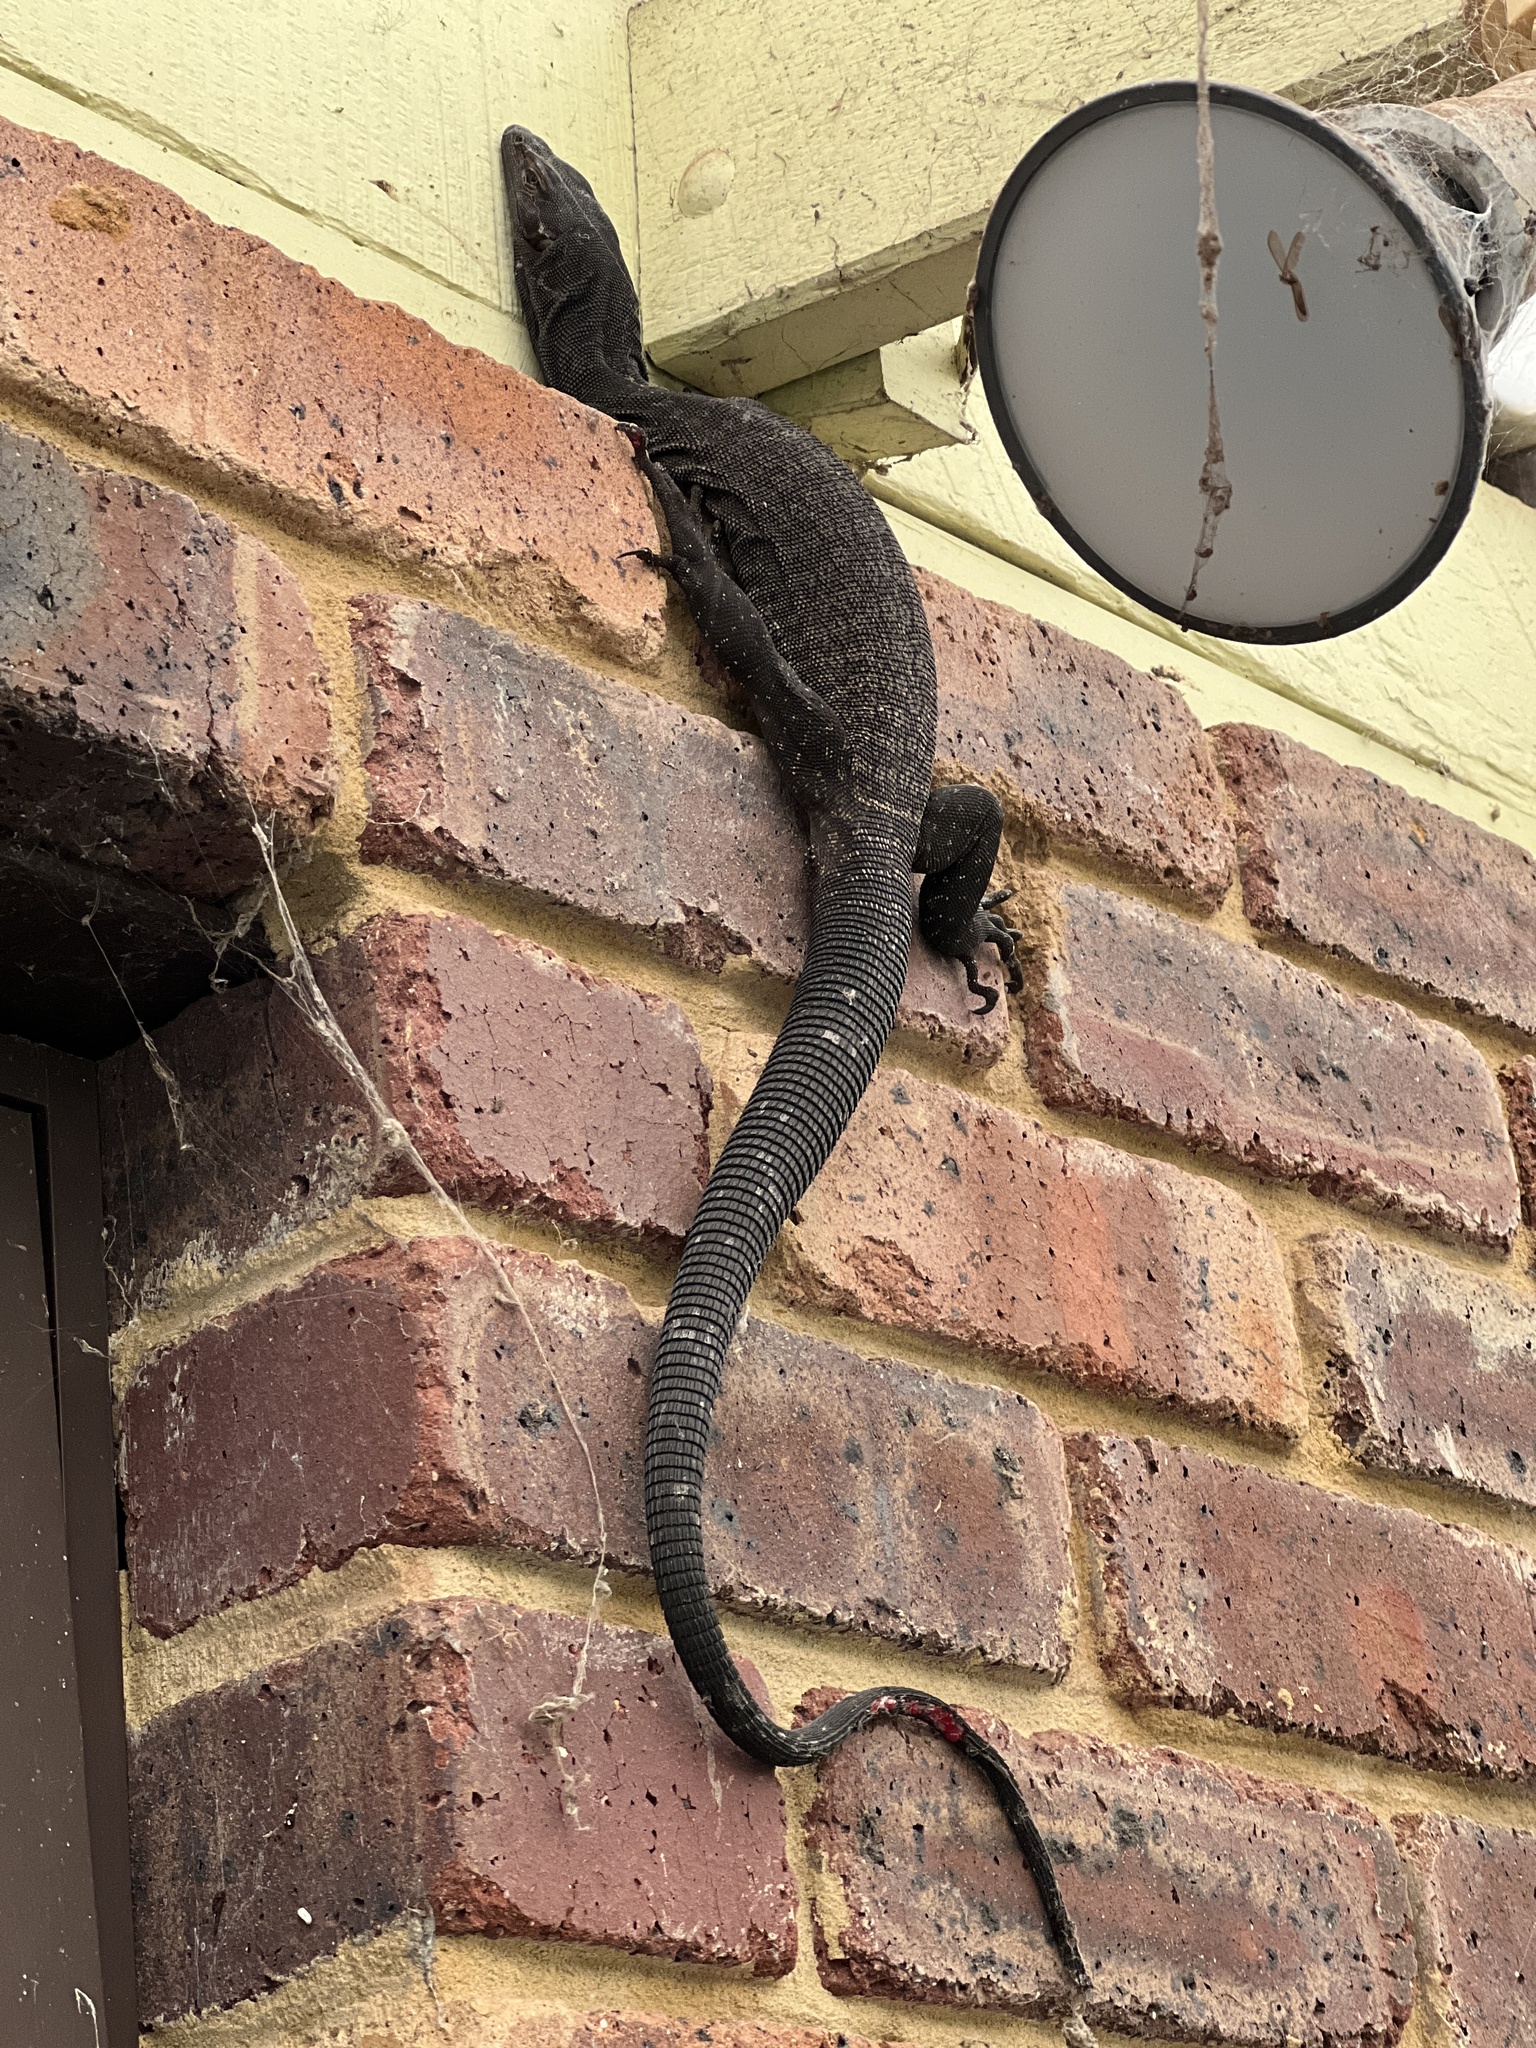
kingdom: Animalia
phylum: Chordata
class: Squamata
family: Varanidae
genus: Varanus
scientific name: Varanus tristis
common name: Arid monitor
